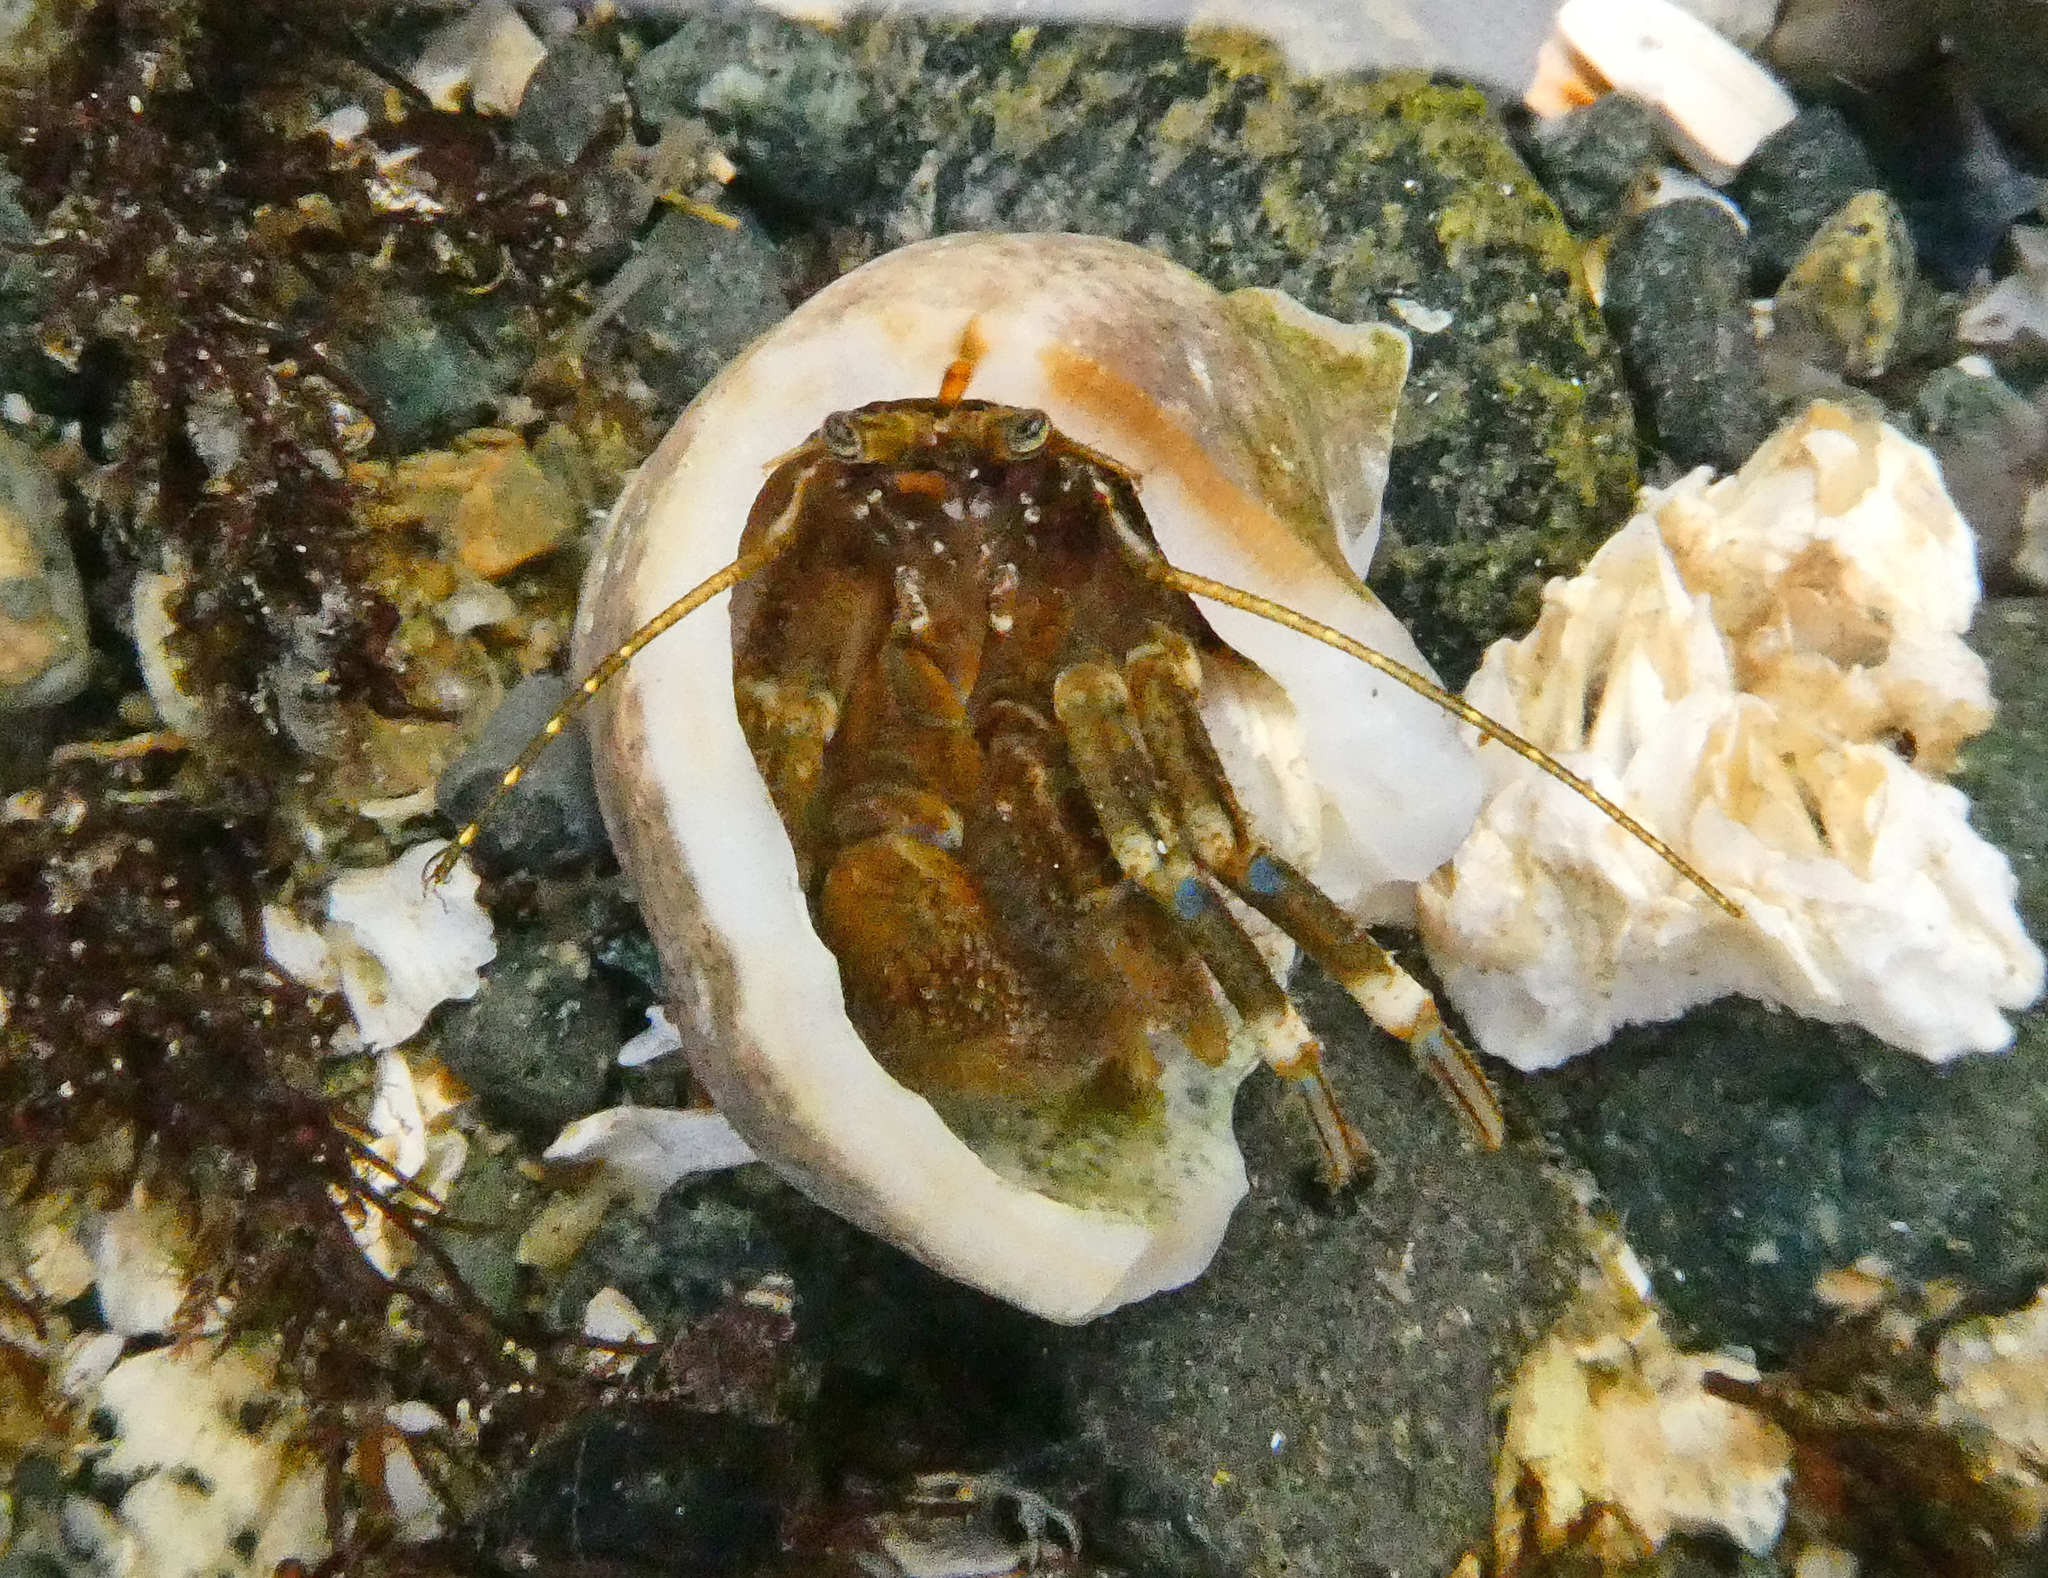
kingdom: Animalia
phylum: Arthropoda
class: Malacostraca
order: Decapoda
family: Paguridae
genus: Pagurus
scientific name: Pagurus hirsutiusculus
